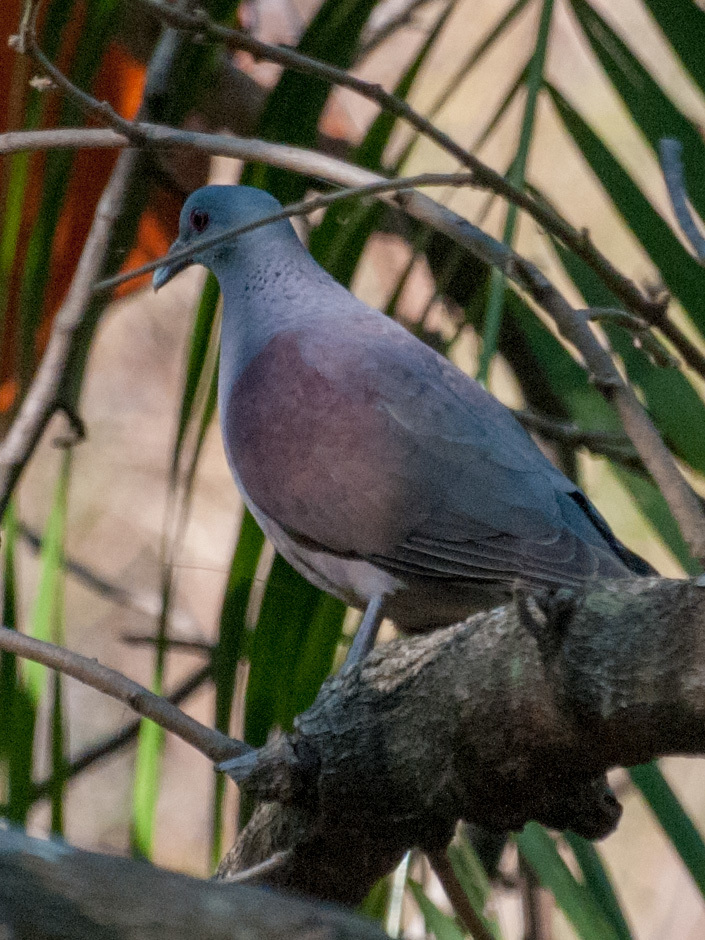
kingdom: Animalia
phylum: Chordata
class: Aves
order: Columbiformes
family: Columbidae
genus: Nesoenas
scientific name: Nesoenas picturatus
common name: Malagasy turtle dove
